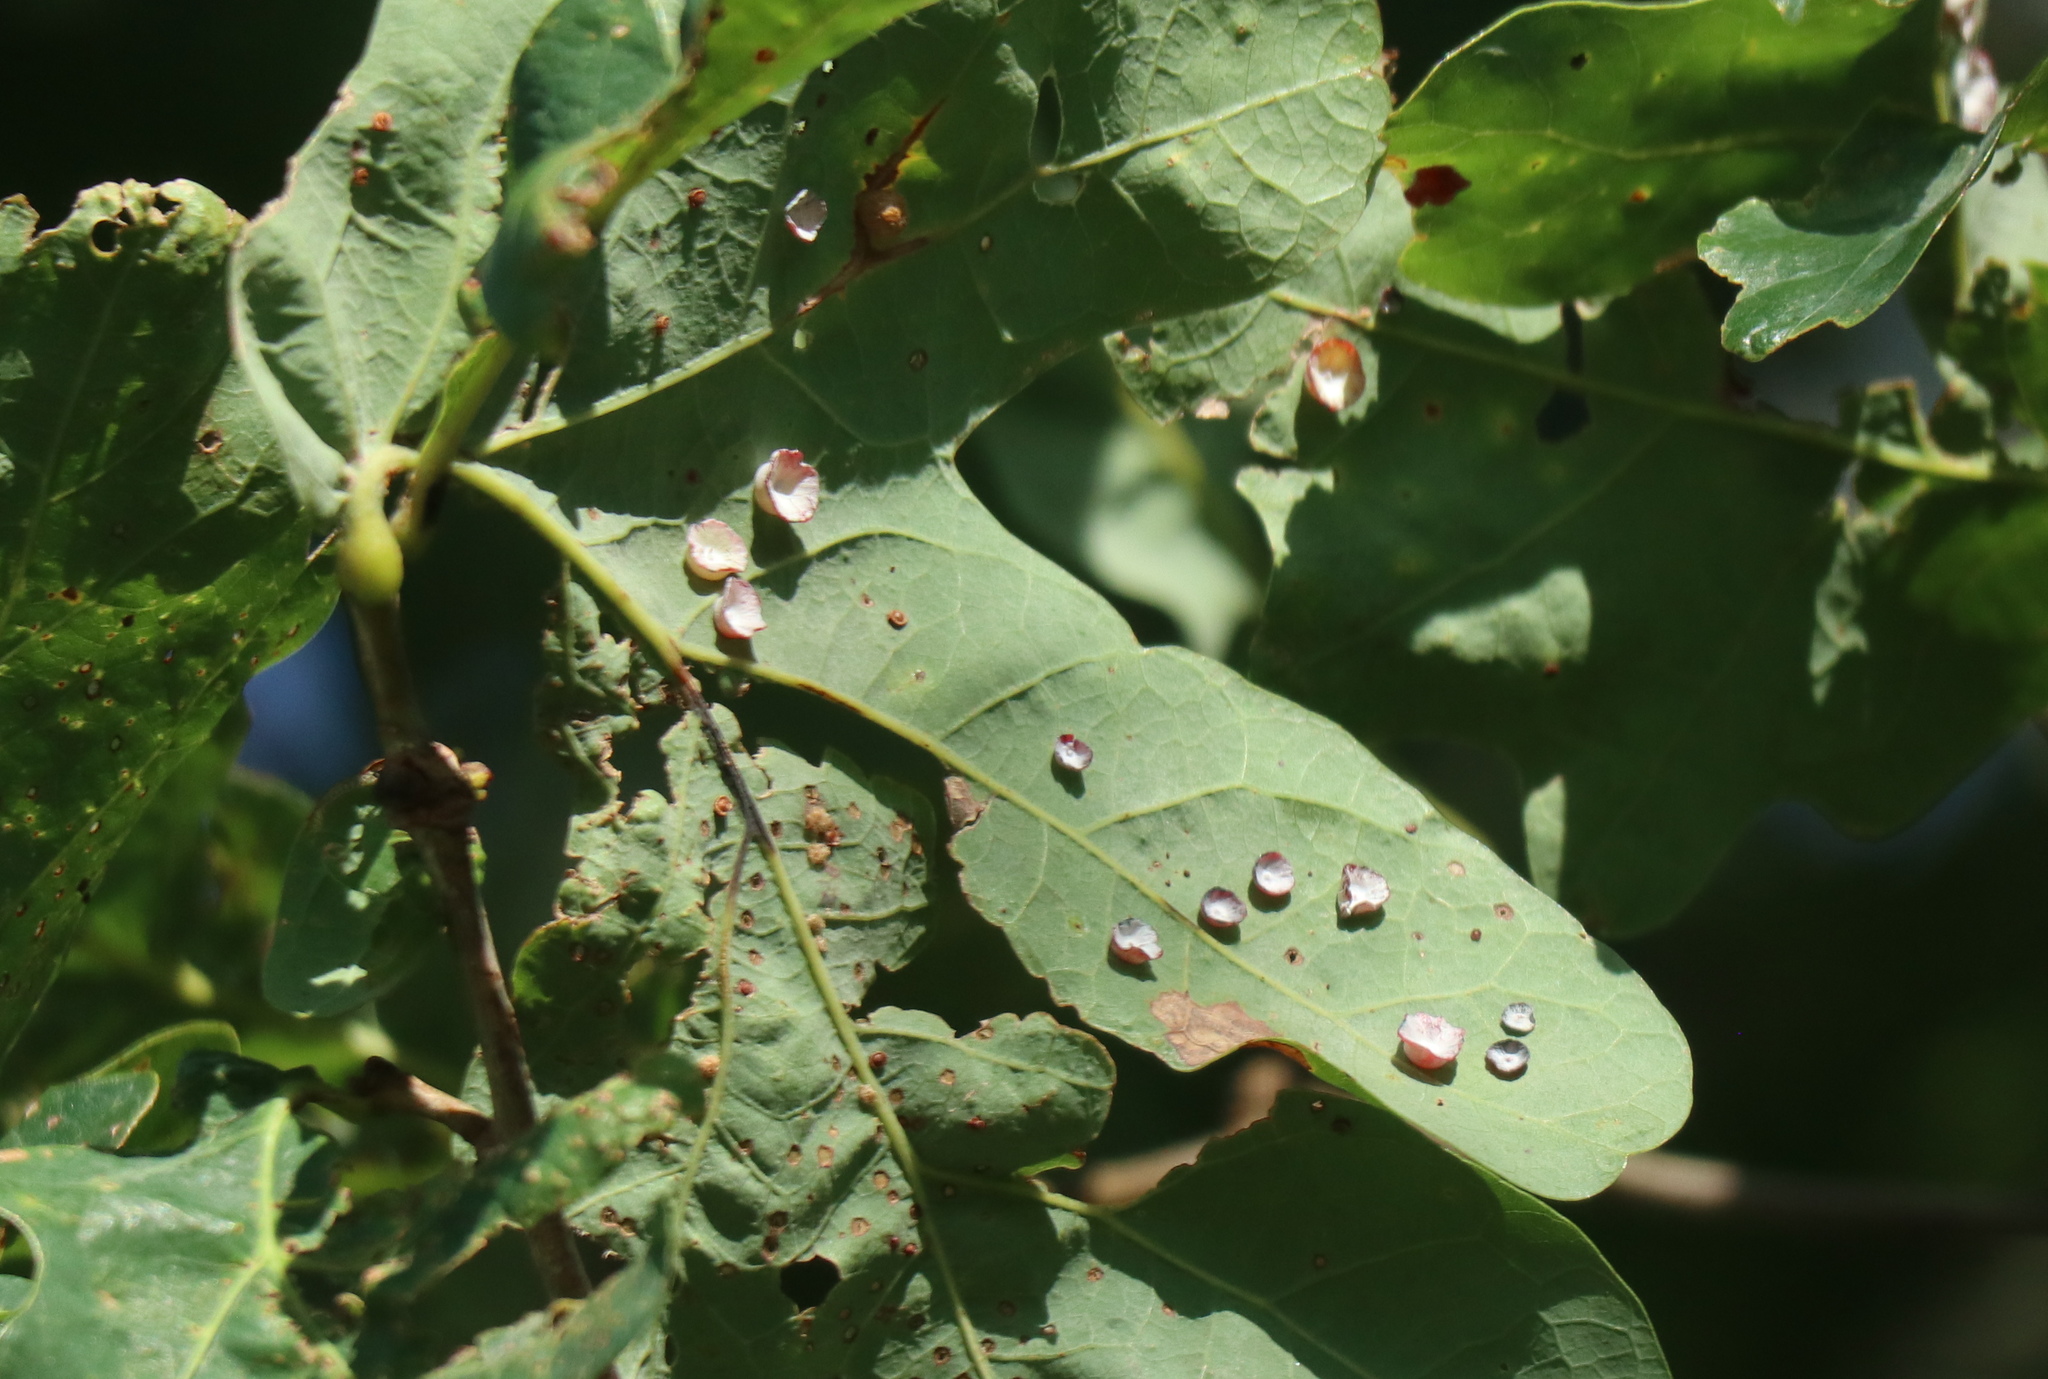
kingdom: Animalia
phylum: Arthropoda
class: Insecta
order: Hymenoptera
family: Cynipidae
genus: Phylloteras
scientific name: Phylloteras poculum
